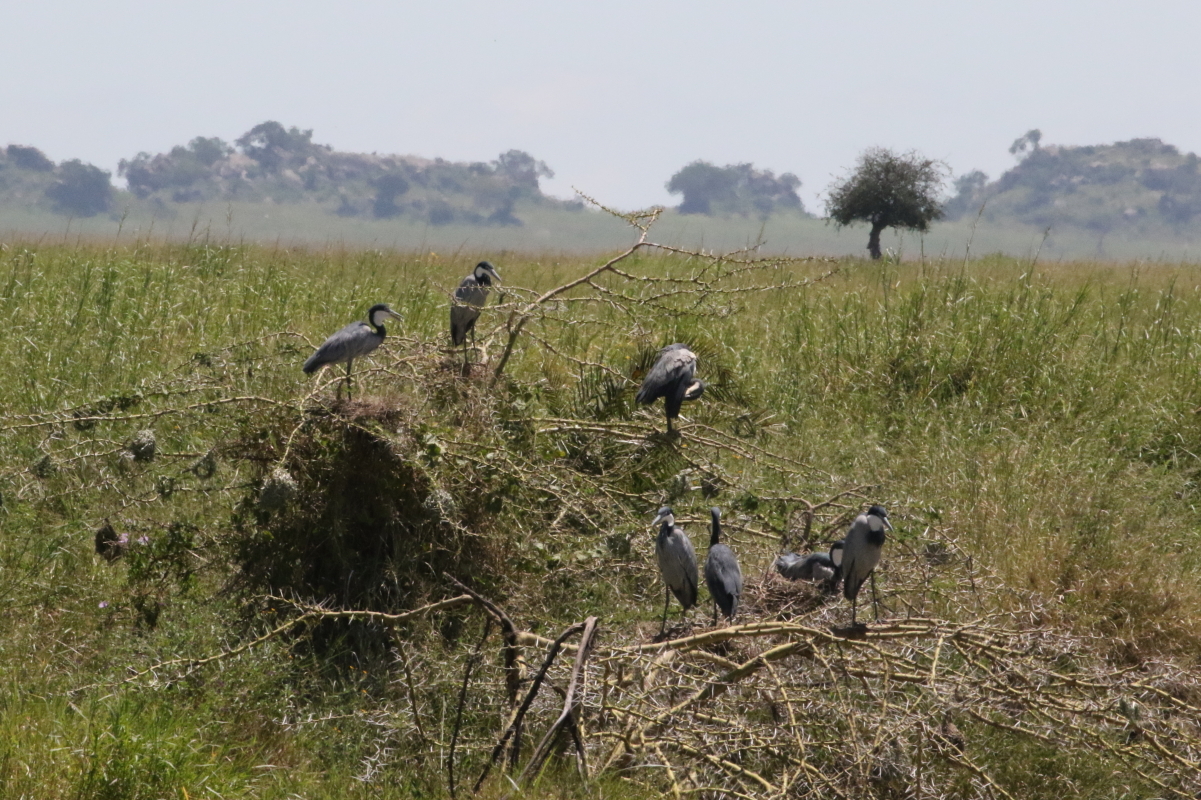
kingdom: Animalia
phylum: Chordata
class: Aves
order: Pelecaniformes
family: Ardeidae
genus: Ardea
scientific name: Ardea melanocephala
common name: Black-headed heron
